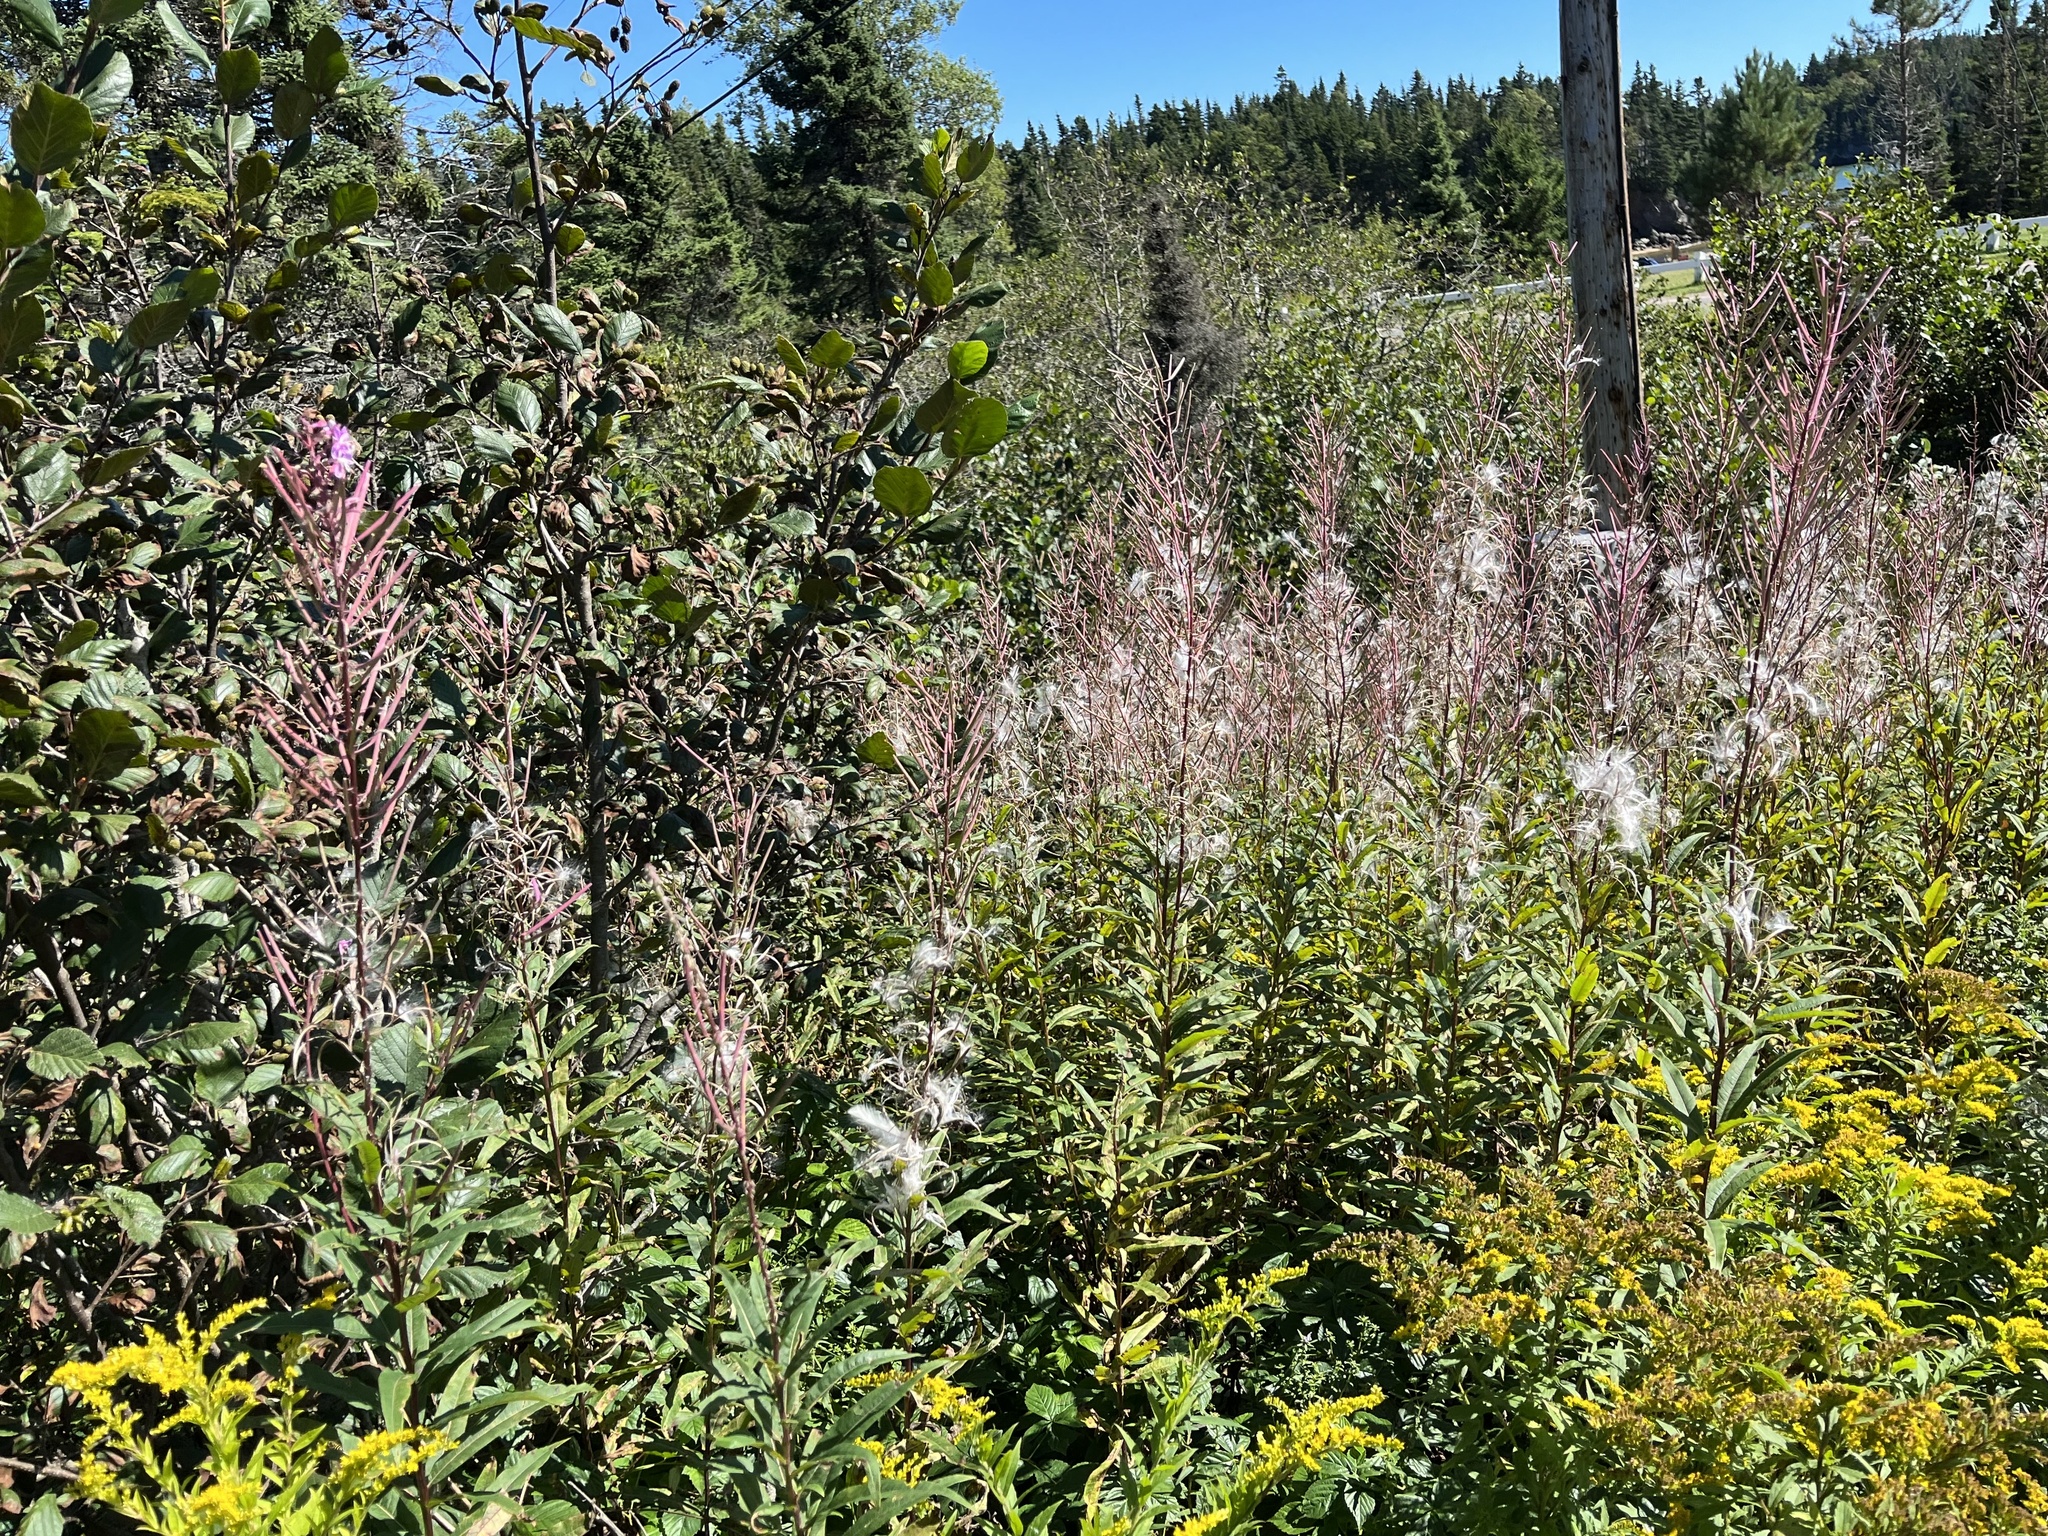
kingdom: Plantae
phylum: Tracheophyta
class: Magnoliopsida
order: Myrtales
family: Onagraceae
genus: Chamaenerion
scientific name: Chamaenerion angustifolium
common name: Fireweed
